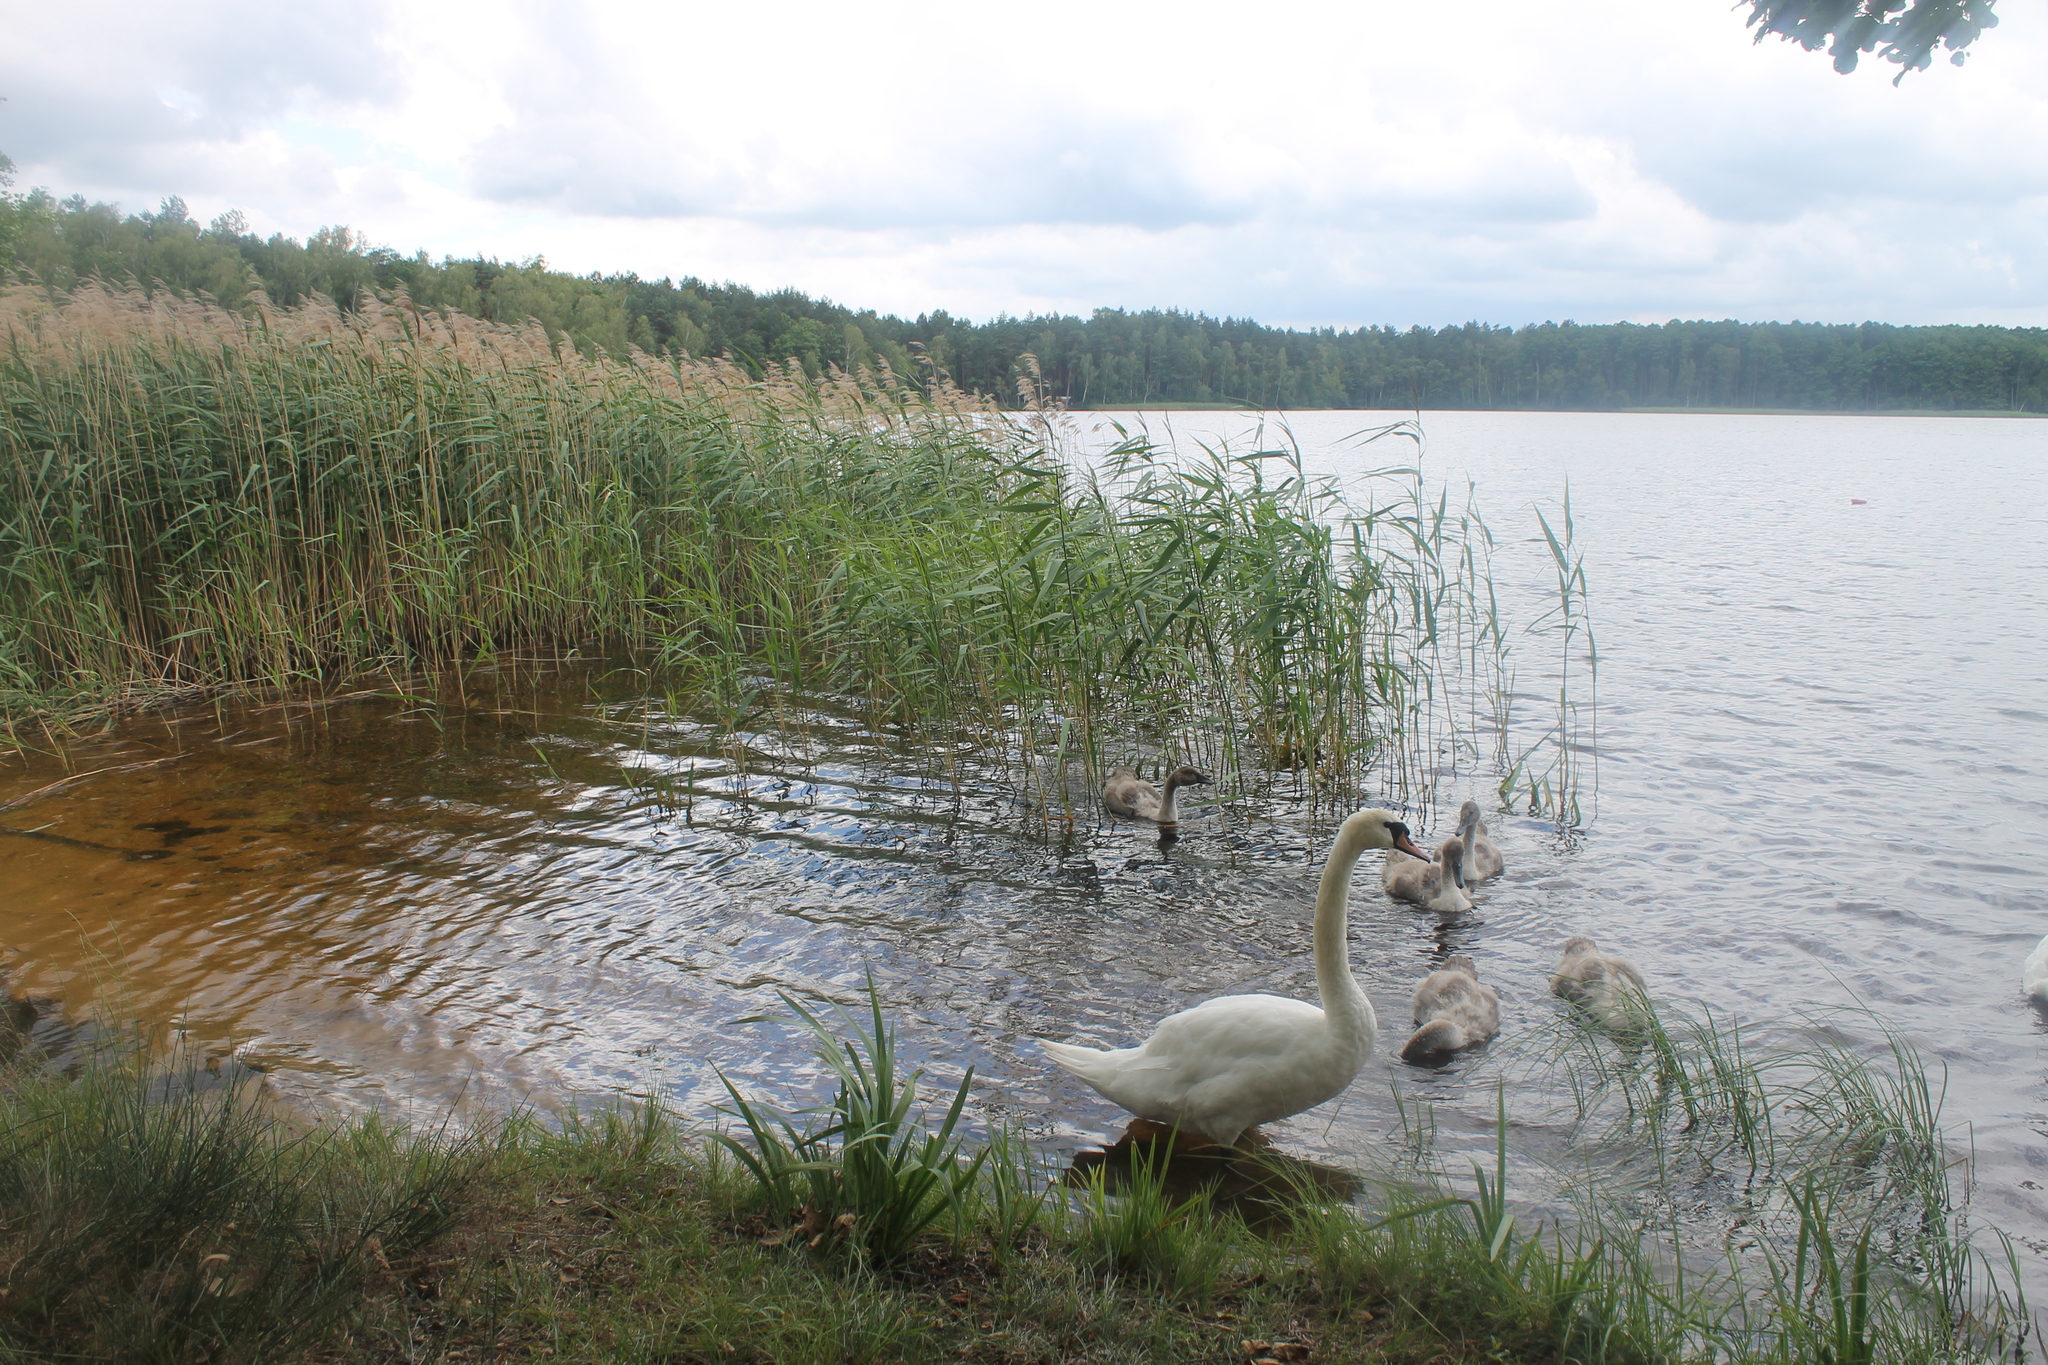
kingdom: Animalia
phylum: Chordata
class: Aves
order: Anseriformes
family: Anatidae
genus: Cygnus
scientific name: Cygnus olor
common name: Mute swan
